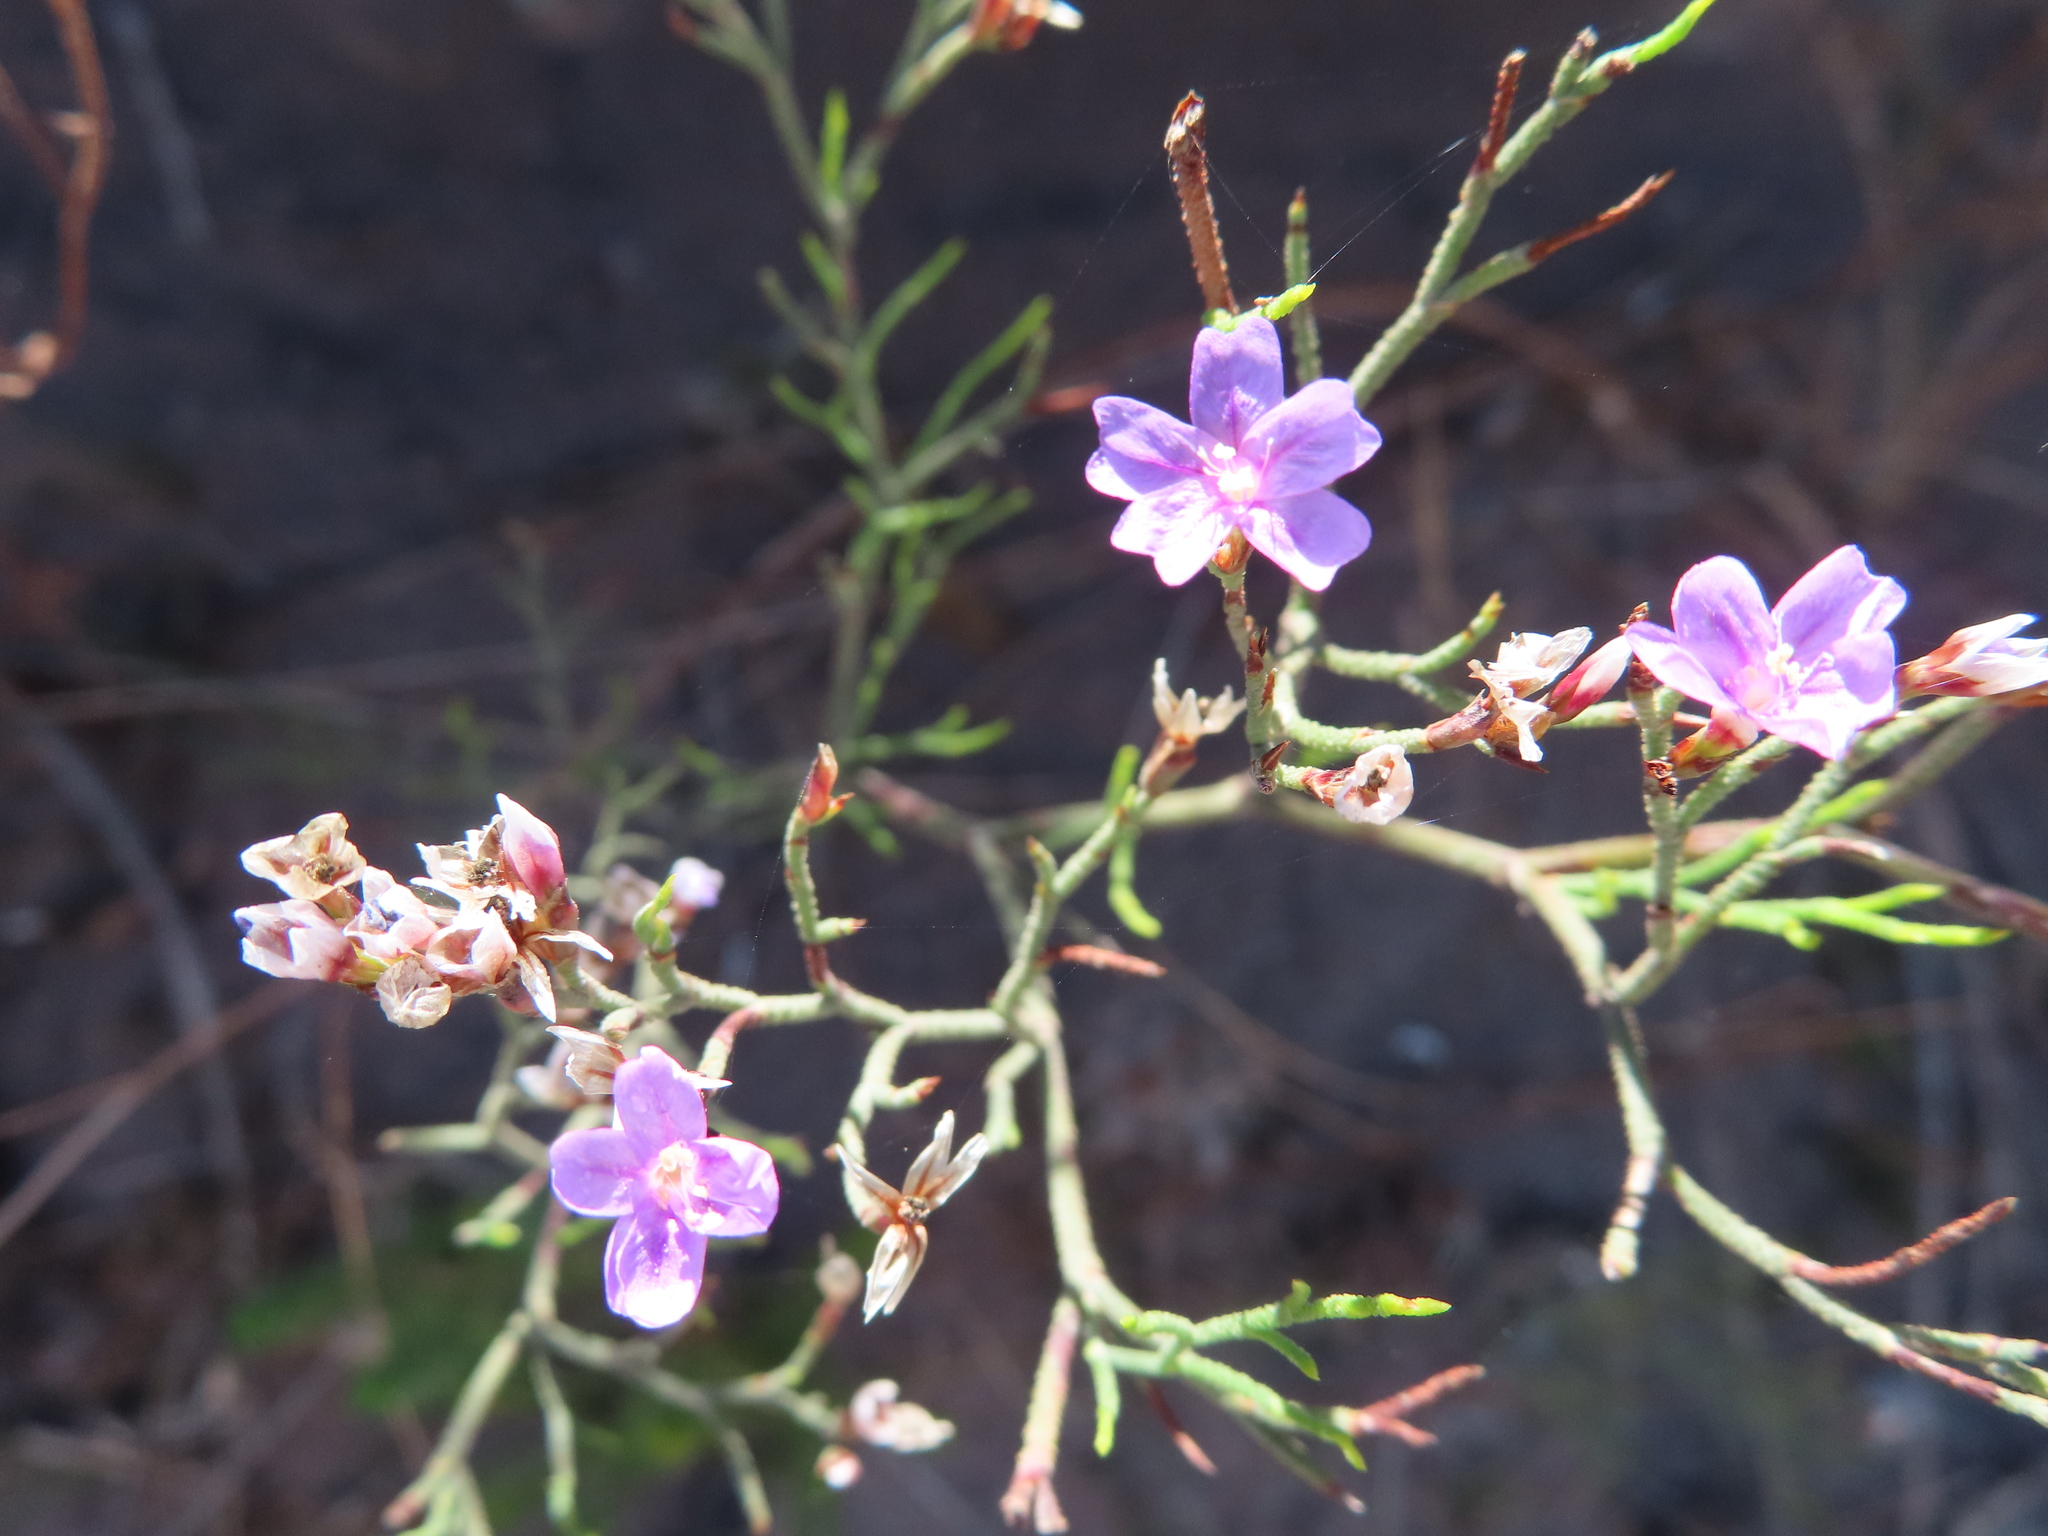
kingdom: Plantae
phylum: Tracheophyta
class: Magnoliopsida
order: Caryophyllales
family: Plumbaginaceae
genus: Limonium
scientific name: Limonium scabrum
